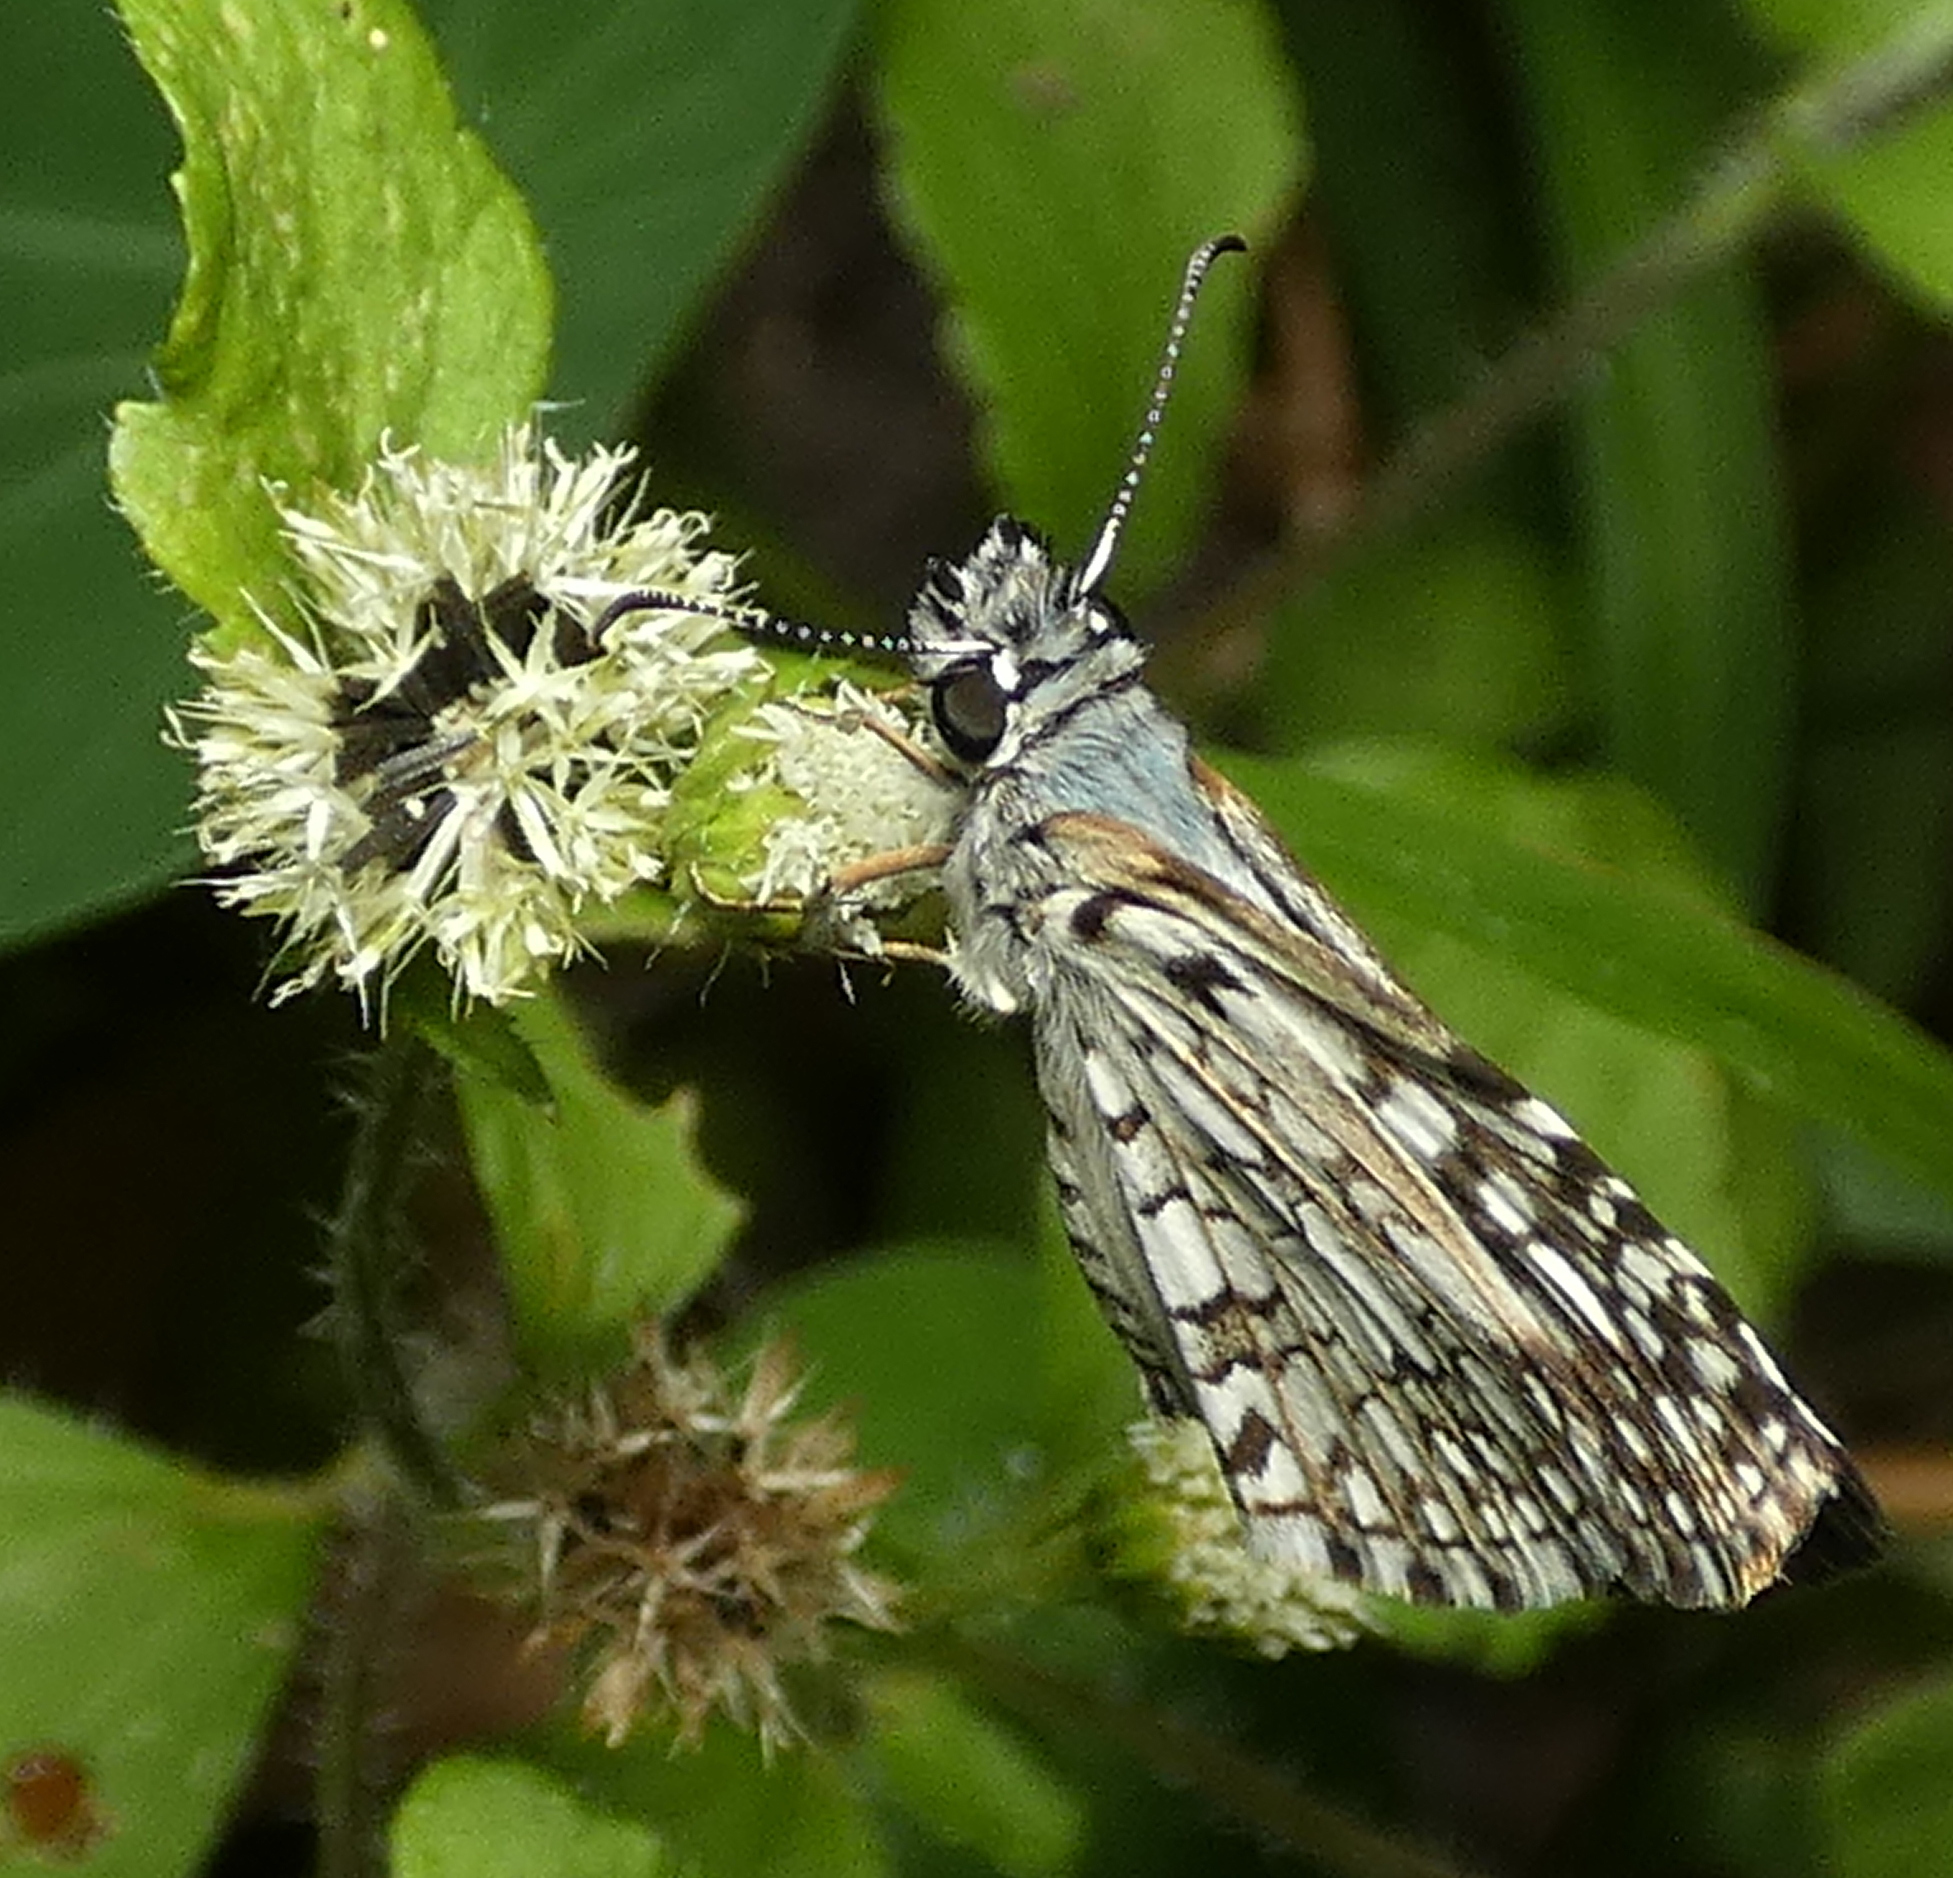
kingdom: Animalia
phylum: Arthropoda
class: Insecta
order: Lepidoptera
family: Hesperiidae
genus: Pyrgus
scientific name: Pyrgus oileus
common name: Tropical checkered-skipper
